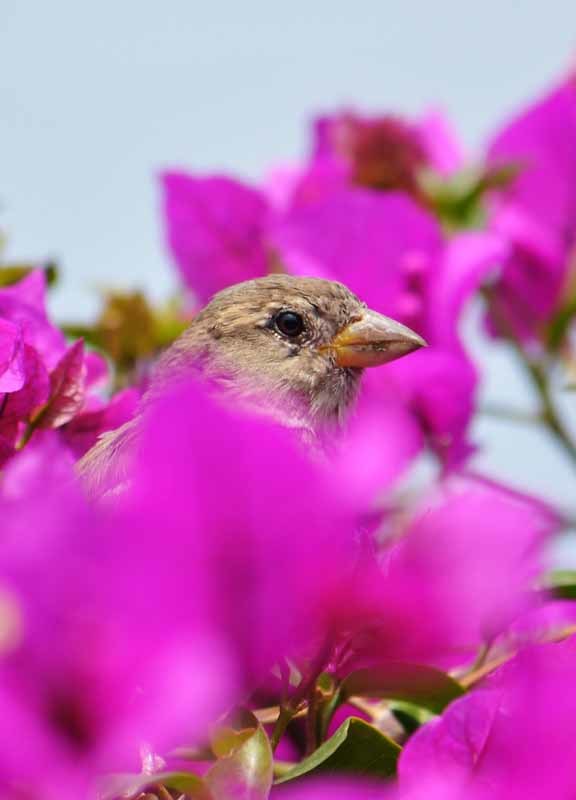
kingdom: Animalia
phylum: Chordata
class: Aves
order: Passeriformes
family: Passeridae
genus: Passer
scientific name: Passer domesticus
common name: House sparrow
